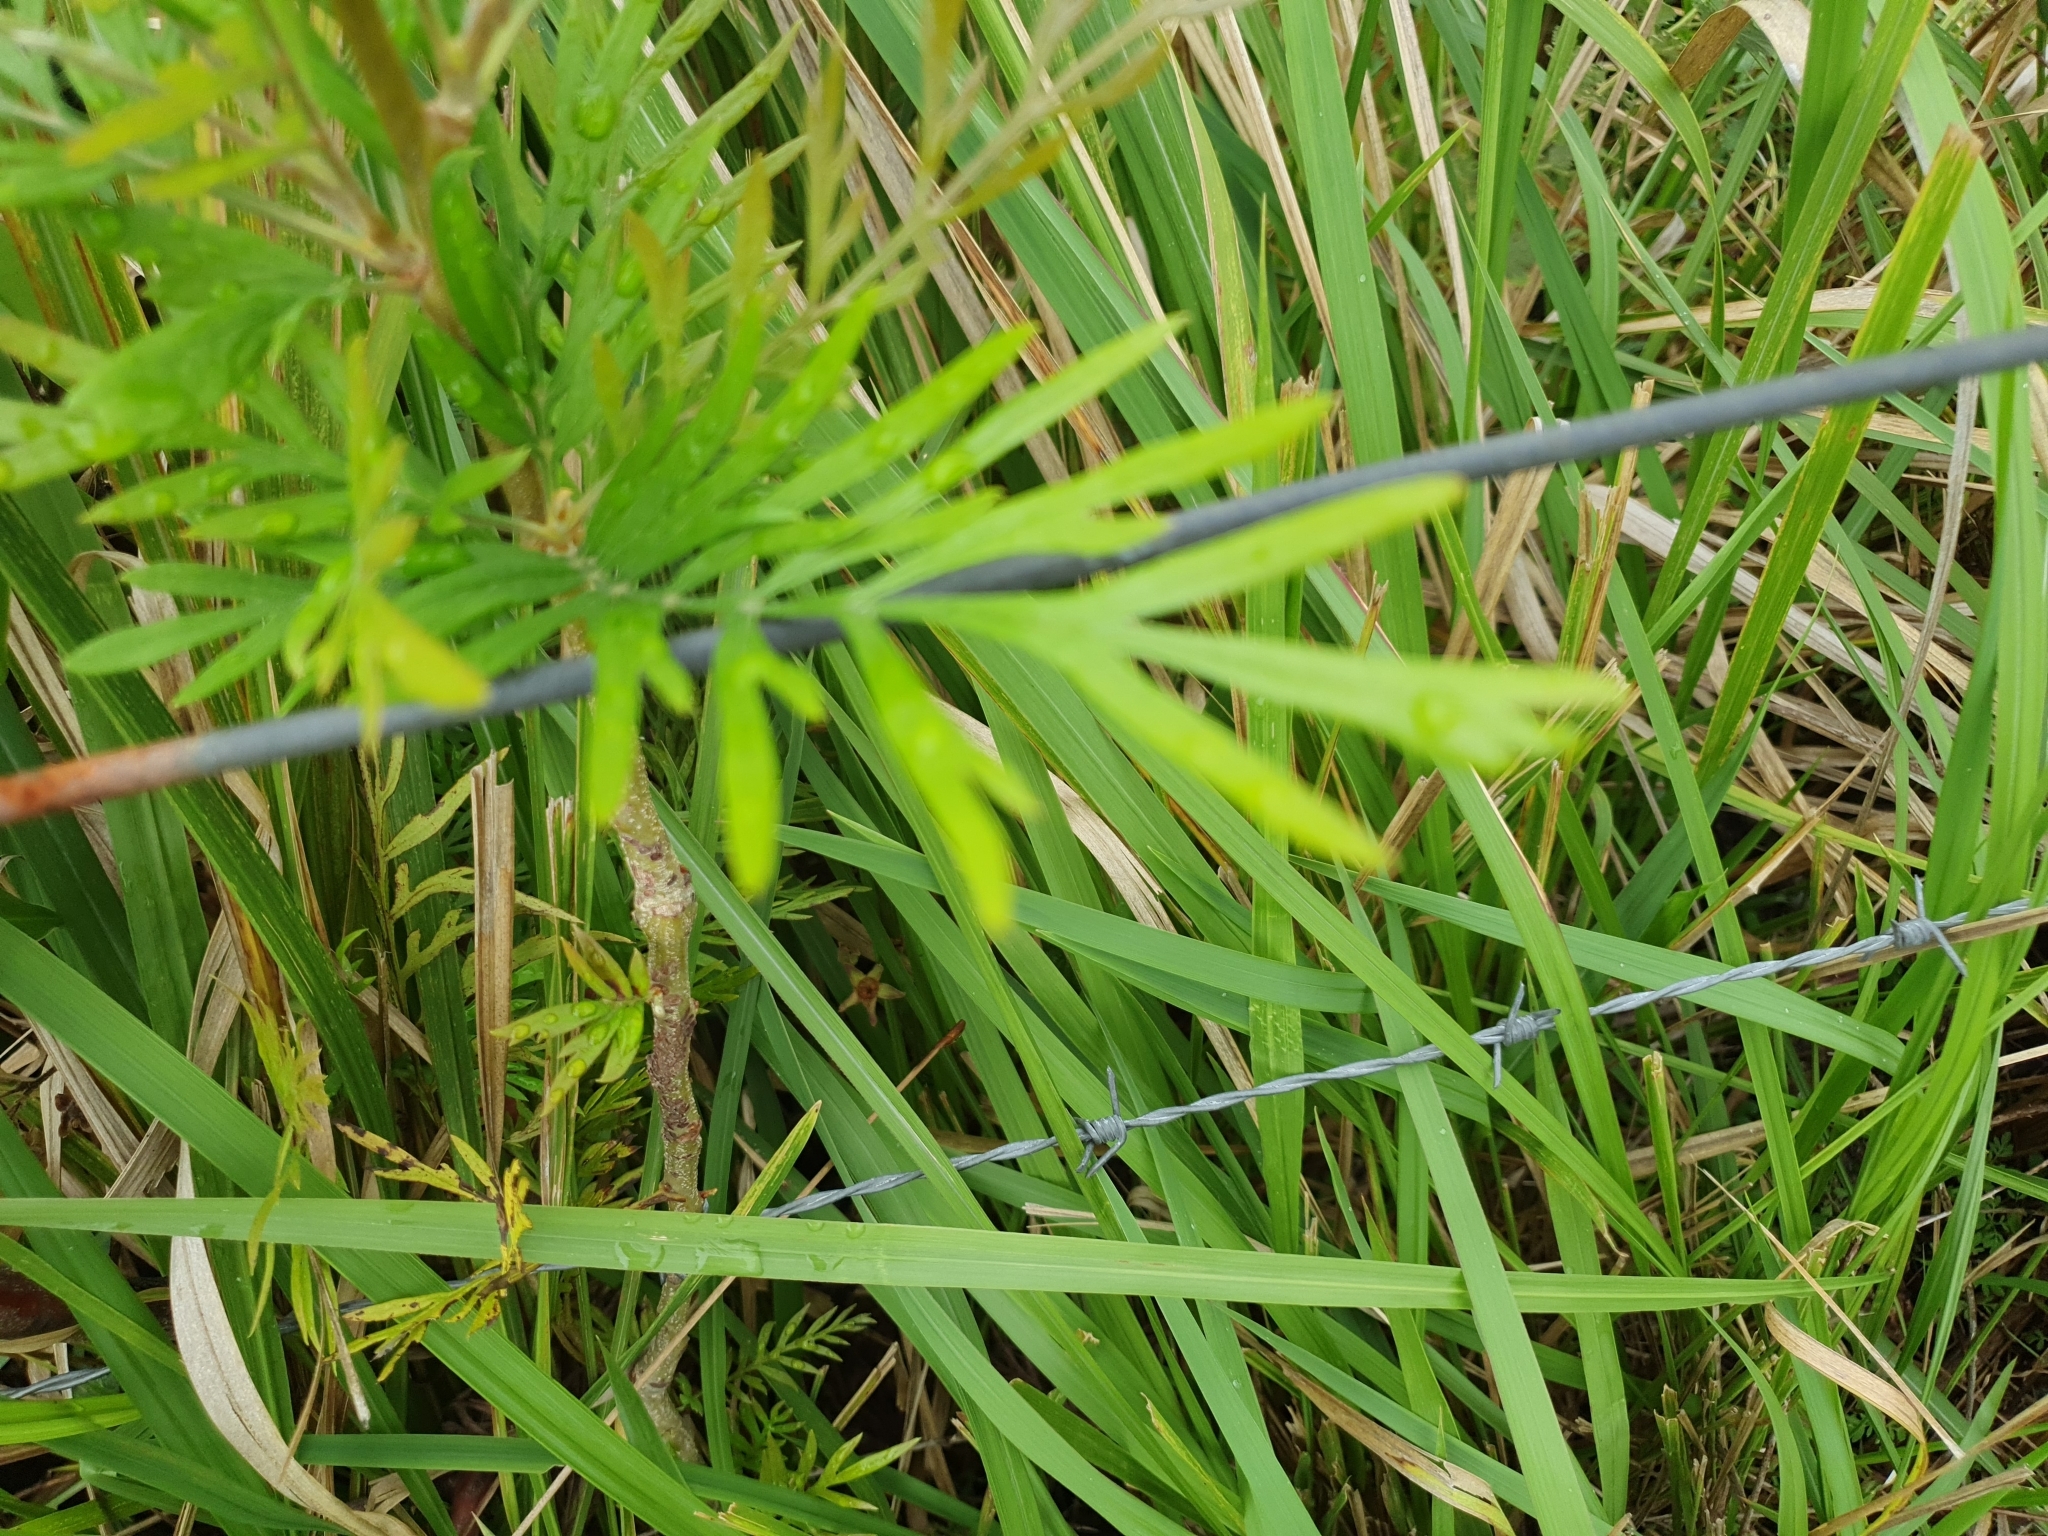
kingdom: Plantae
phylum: Tracheophyta
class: Magnoliopsida
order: Proteales
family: Proteaceae
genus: Grevillea
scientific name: Grevillea robusta
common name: Silkoak
